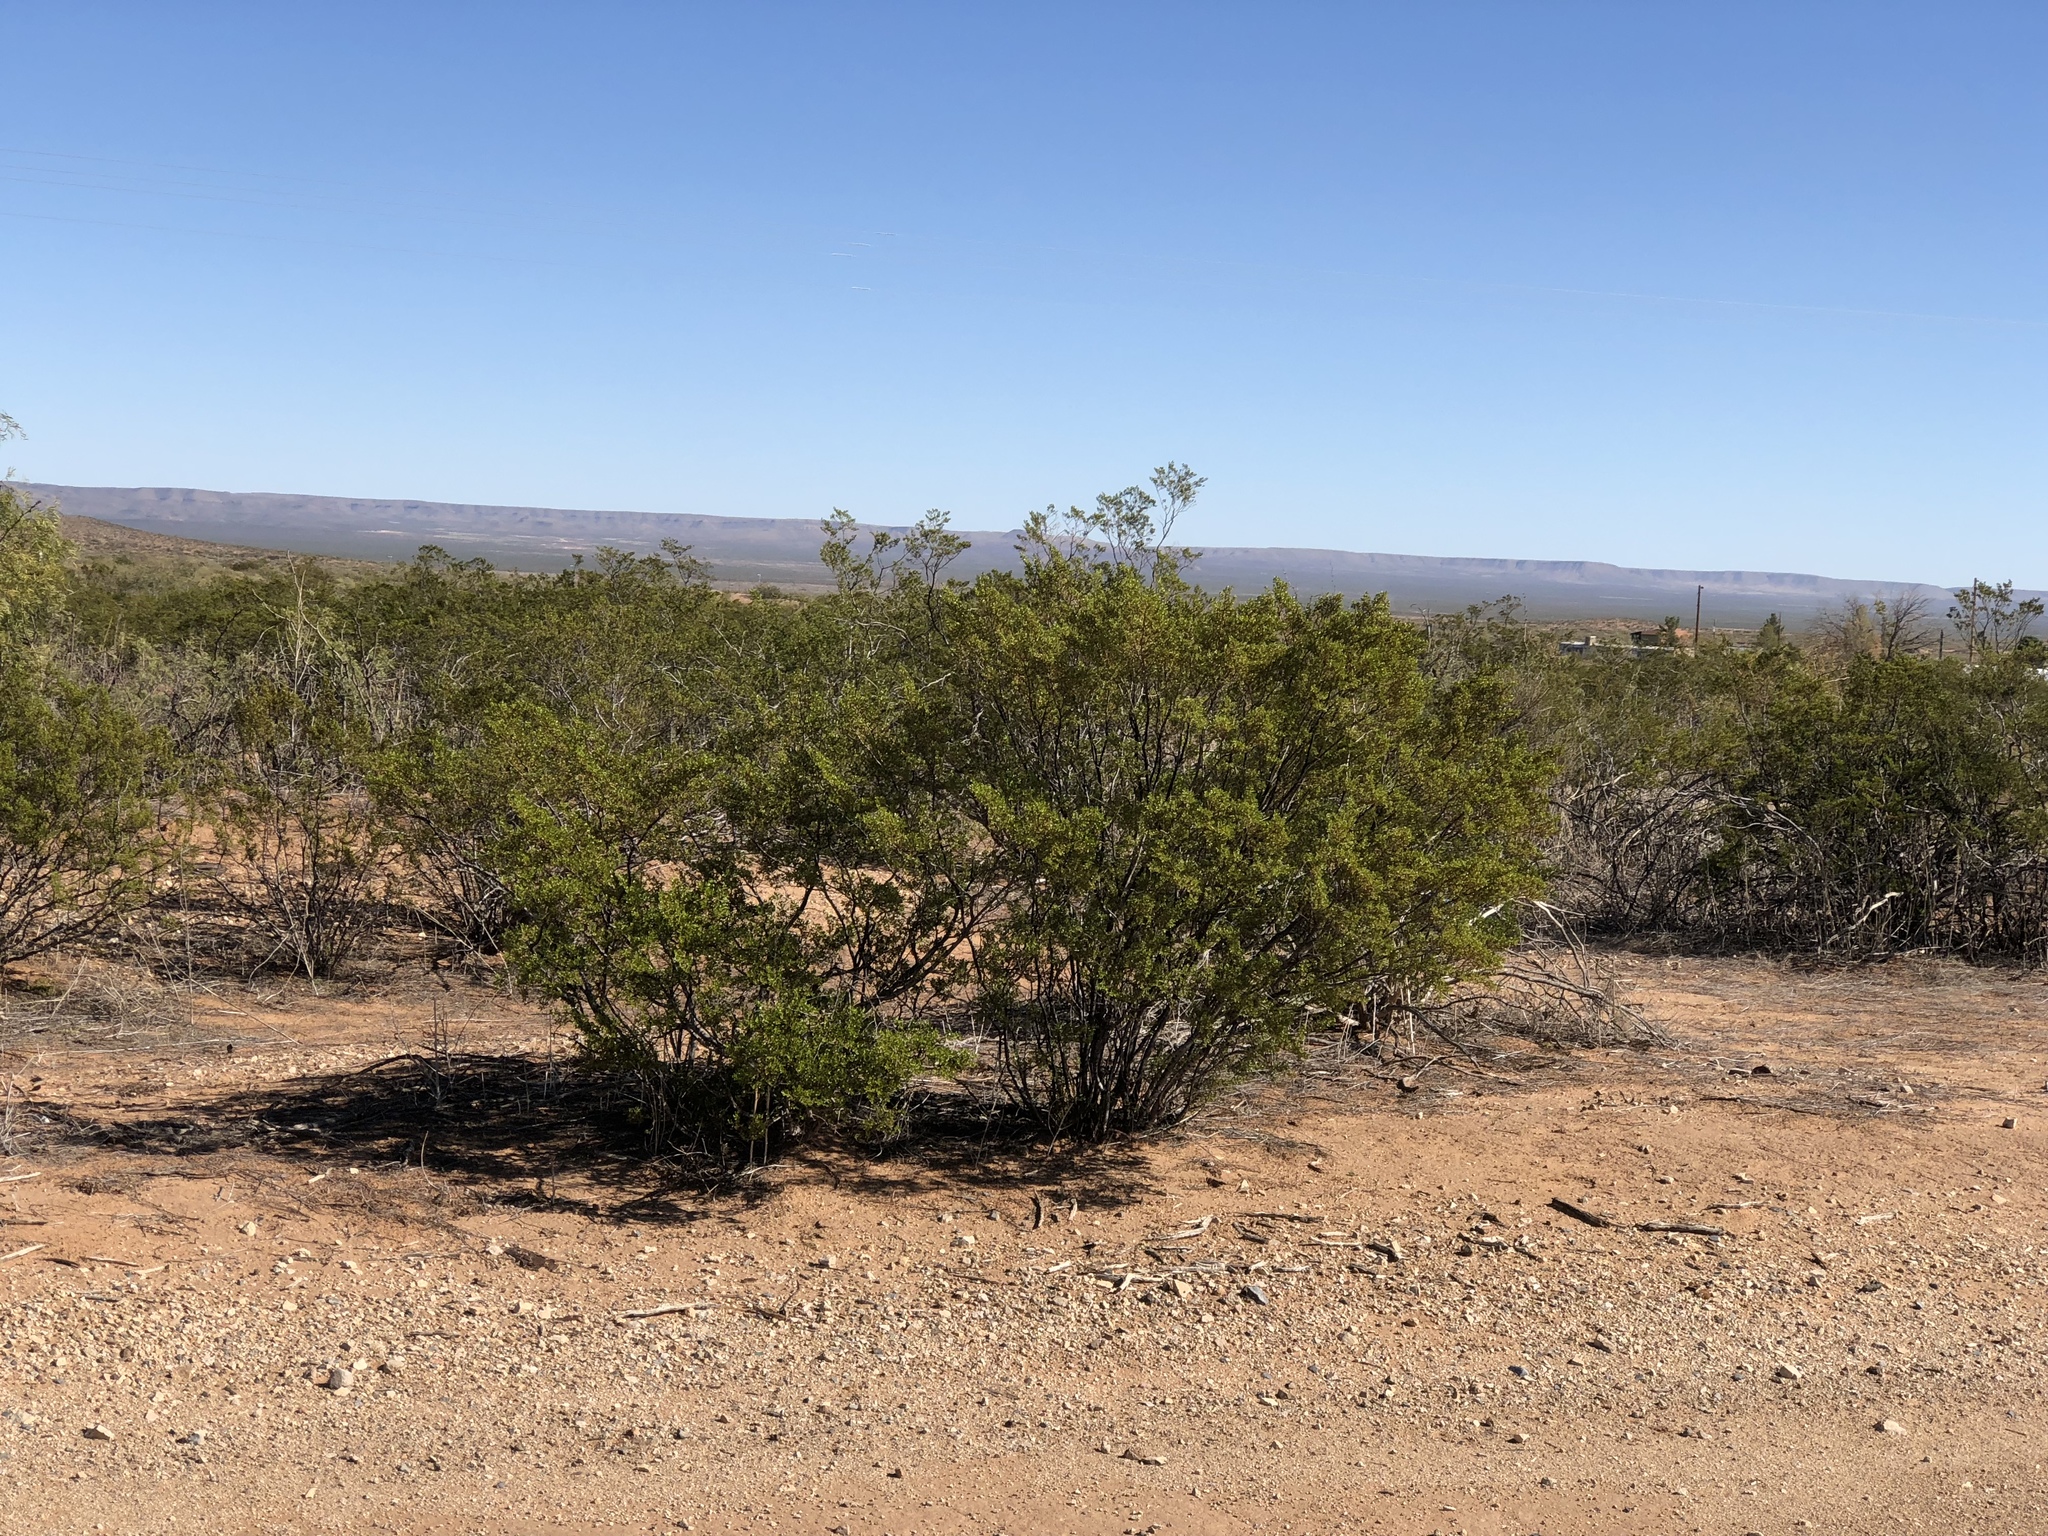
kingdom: Plantae
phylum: Tracheophyta
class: Magnoliopsida
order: Zygophyllales
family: Zygophyllaceae
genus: Larrea
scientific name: Larrea tridentata
